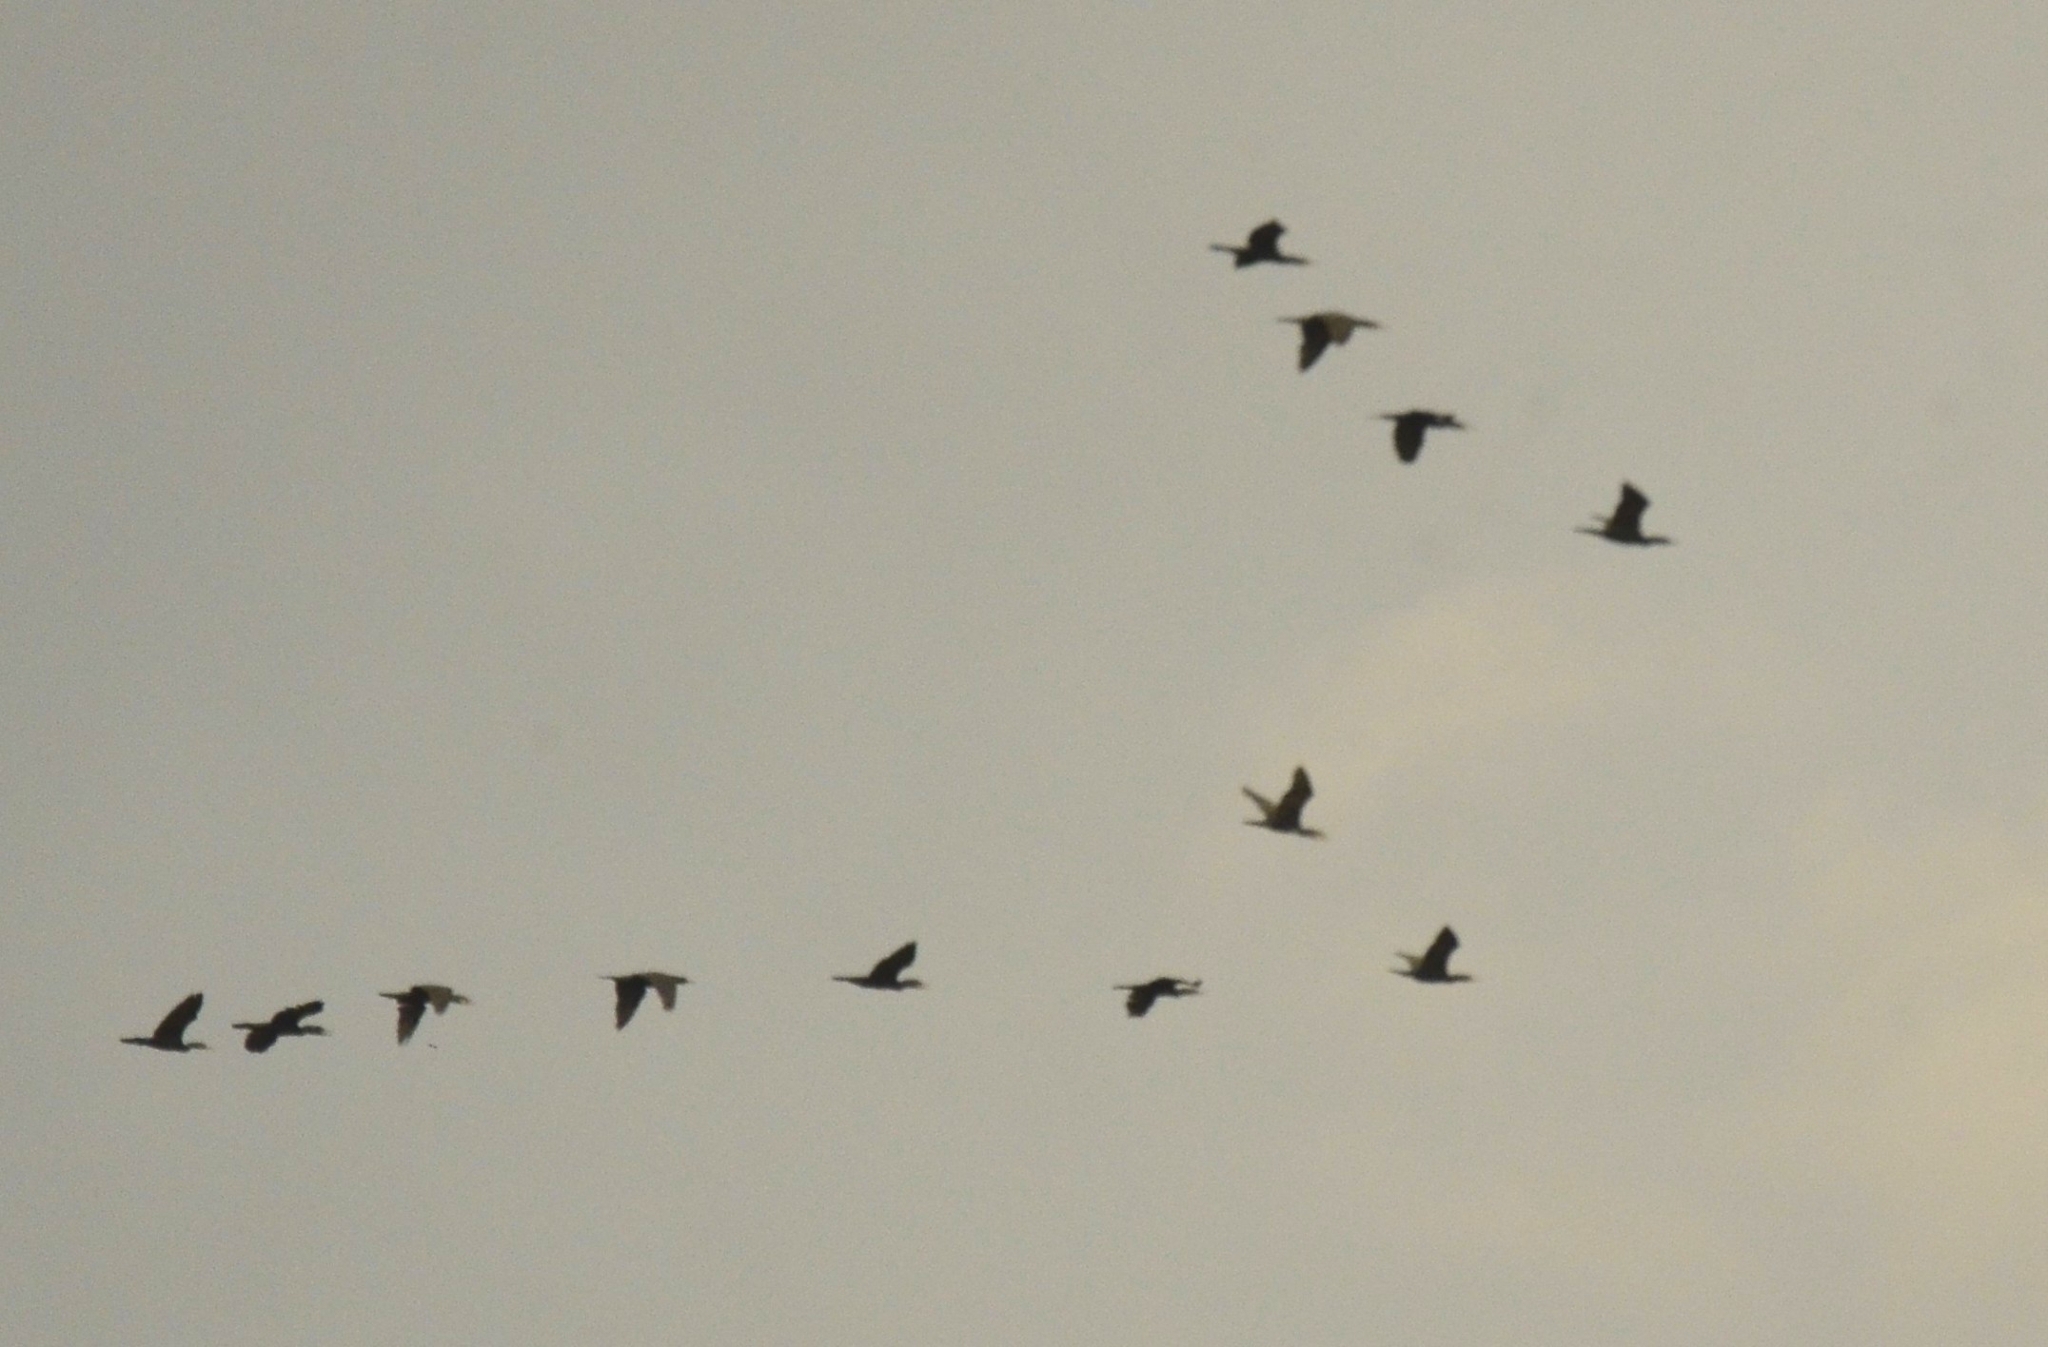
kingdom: Animalia
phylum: Chordata
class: Aves
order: Suliformes
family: Phalacrocoracidae
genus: Phalacrocorax
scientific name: Phalacrocorax fuscicollis
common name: Indian cormorant
